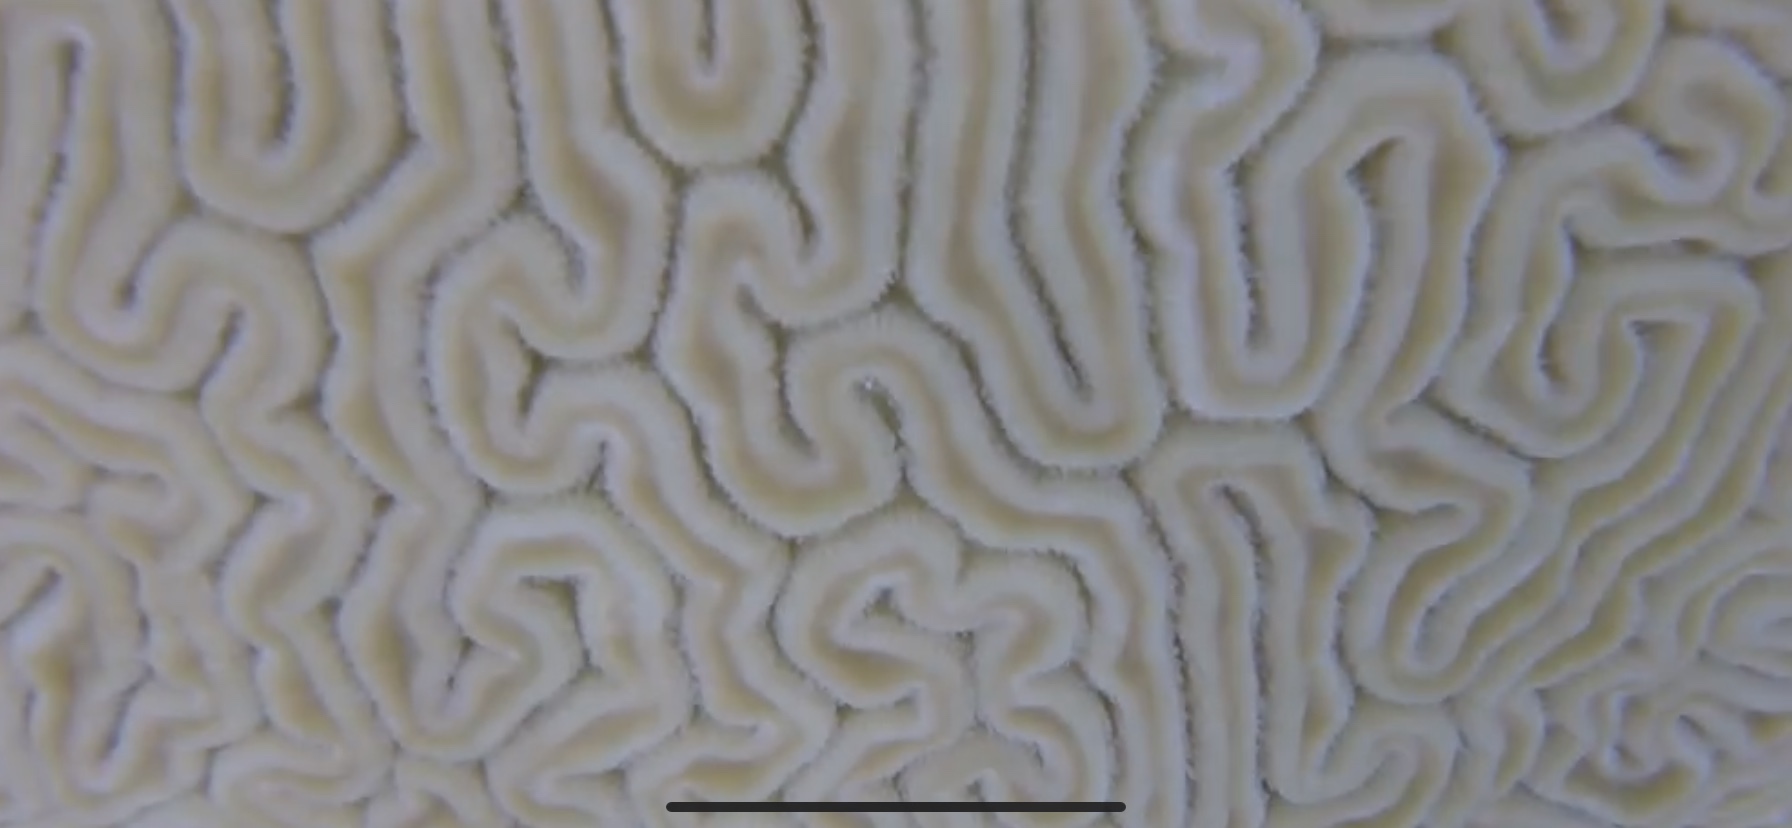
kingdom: Animalia
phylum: Cnidaria
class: Anthozoa
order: Scleractinia
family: Faviidae
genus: Diploria
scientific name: Diploria labyrinthiformis
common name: Grooved brain coral
